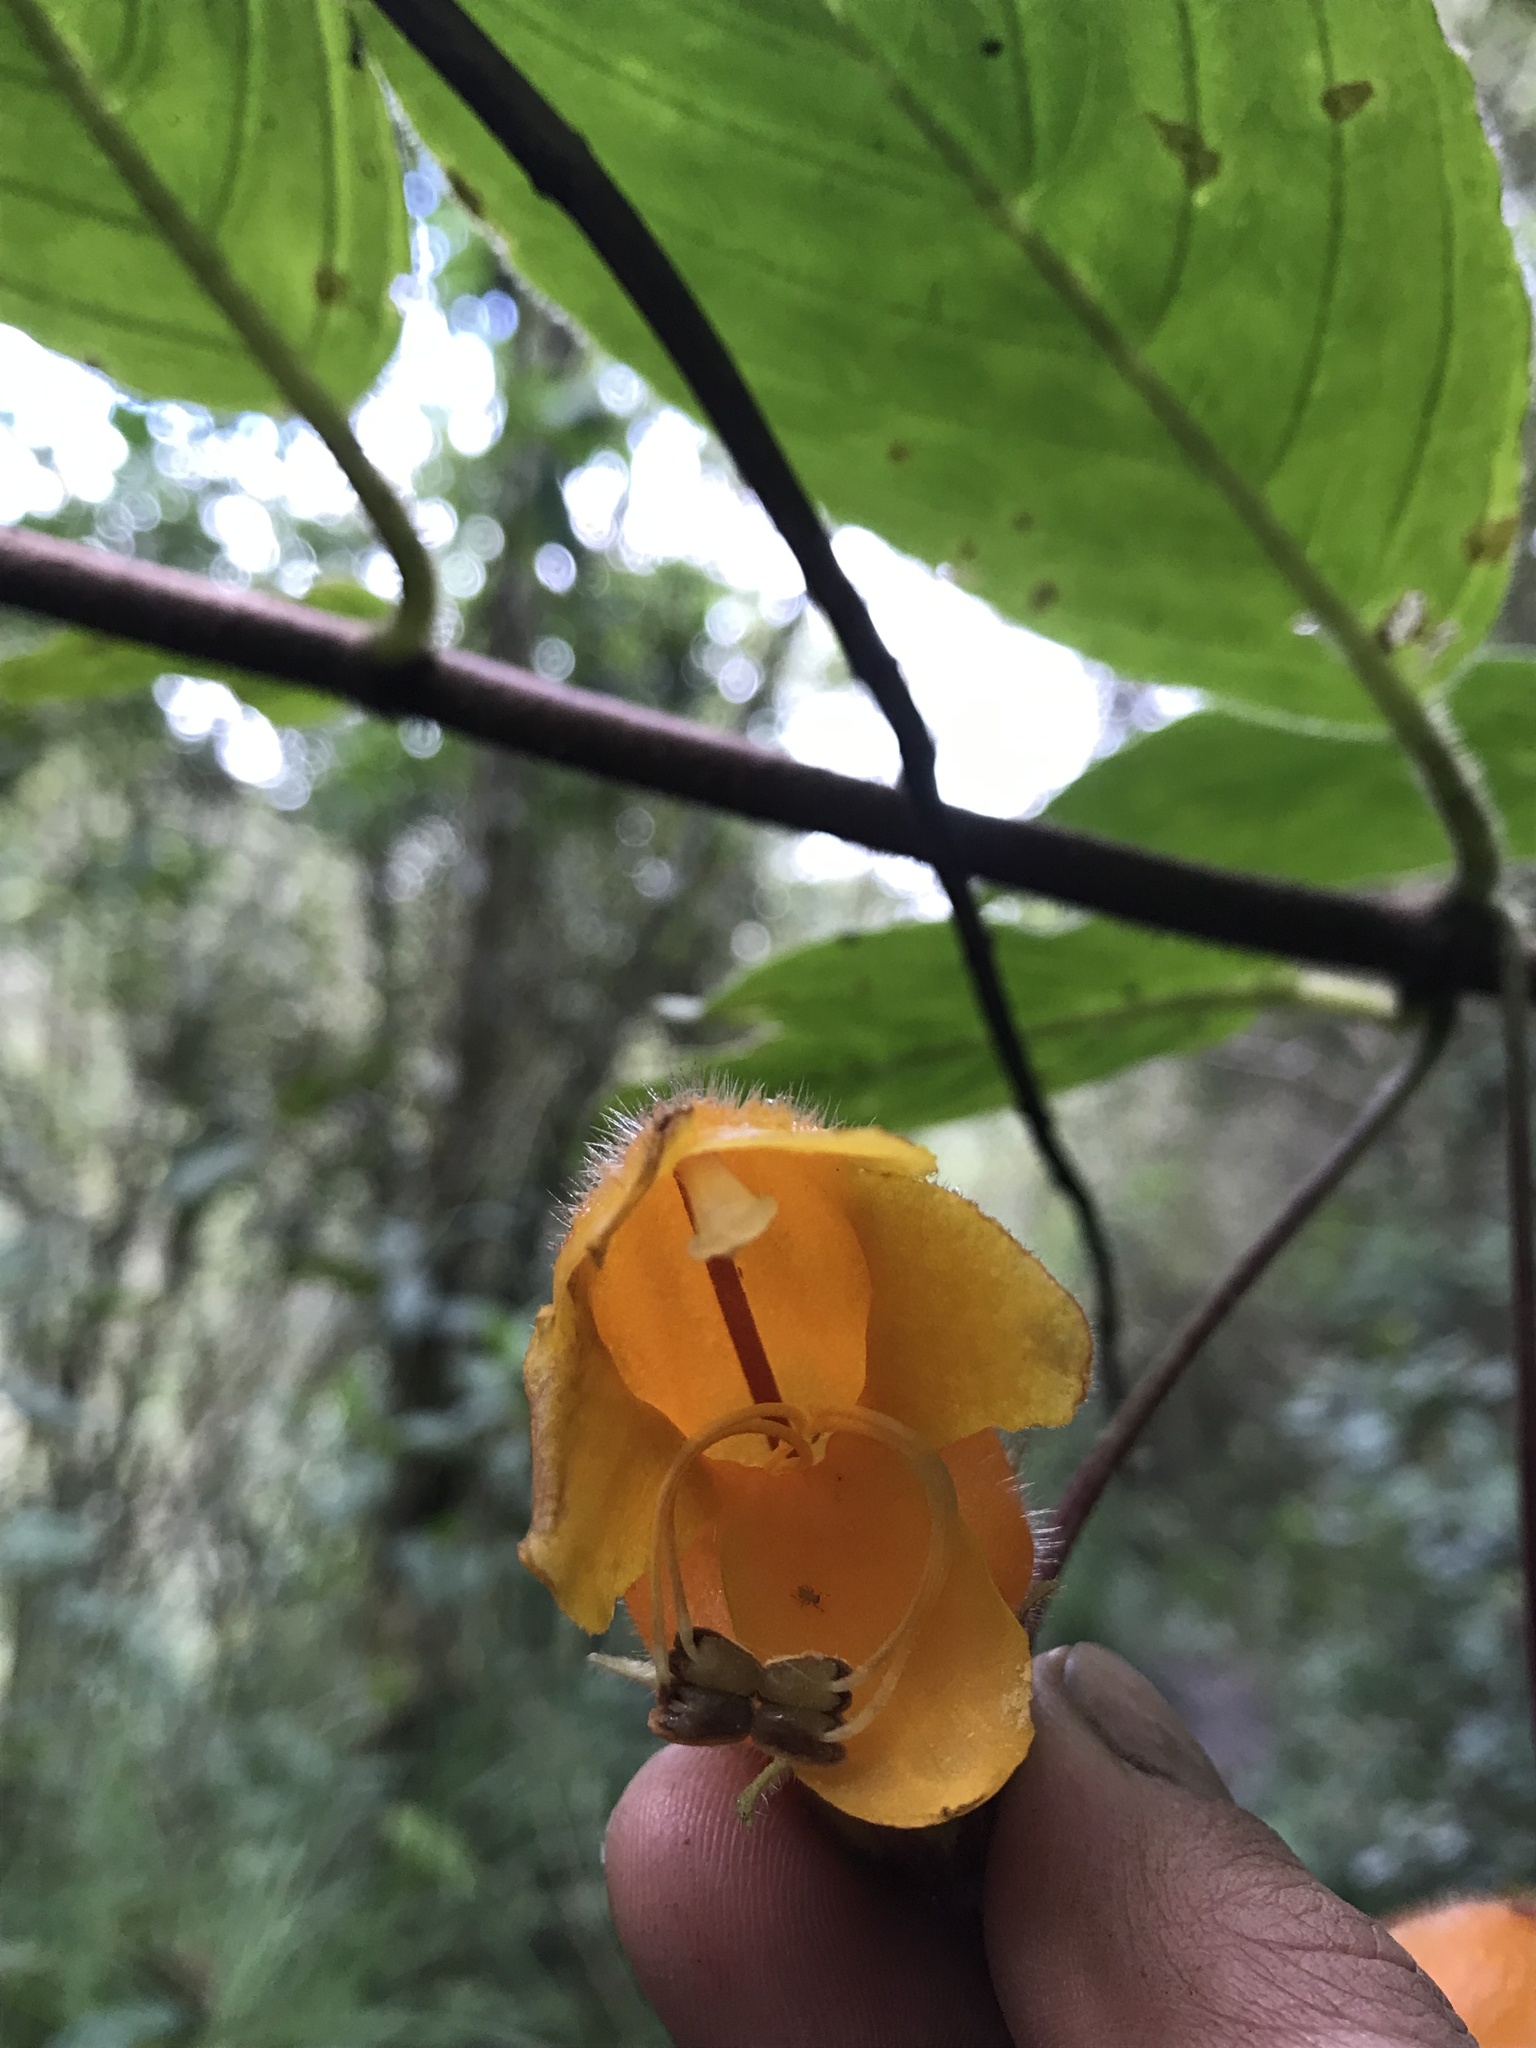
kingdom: Plantae
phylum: Tracheophyta
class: Magnoliopsida
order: Lamiales
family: Gesneriaceae
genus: Columnea
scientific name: Columnea strigosa
